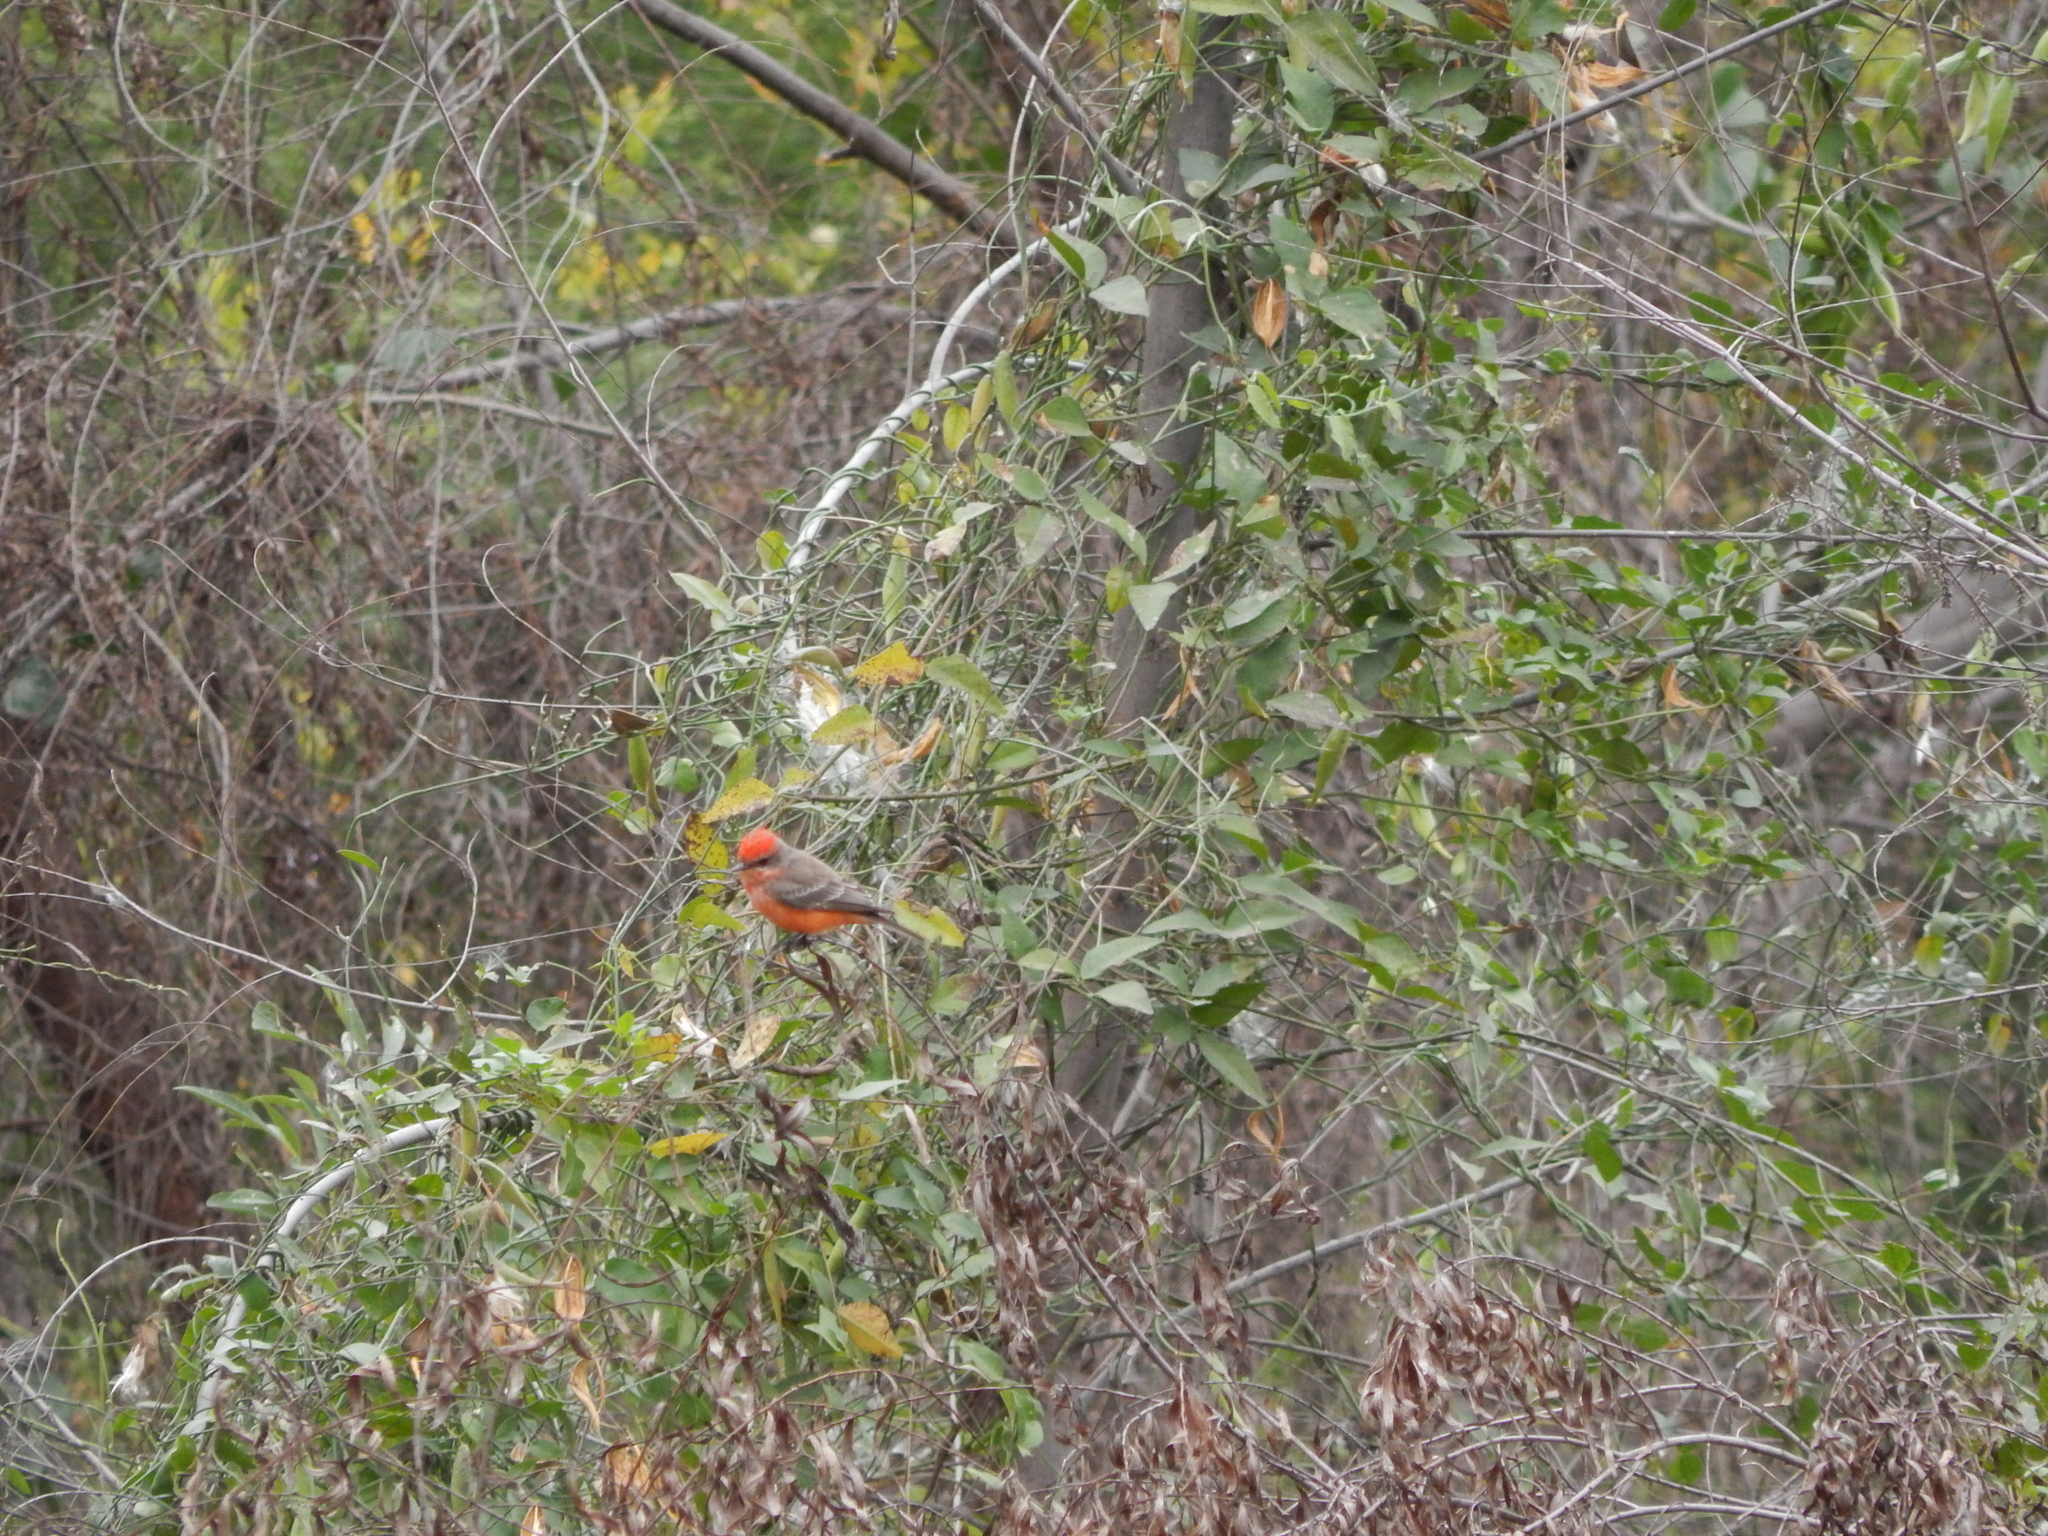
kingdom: Animalia
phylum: Chordata
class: Aves
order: Passeriformes
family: Tyrannidae
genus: Pyrocephalus
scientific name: Pyrocephalus rubinus
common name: Vermilion flycatcher
